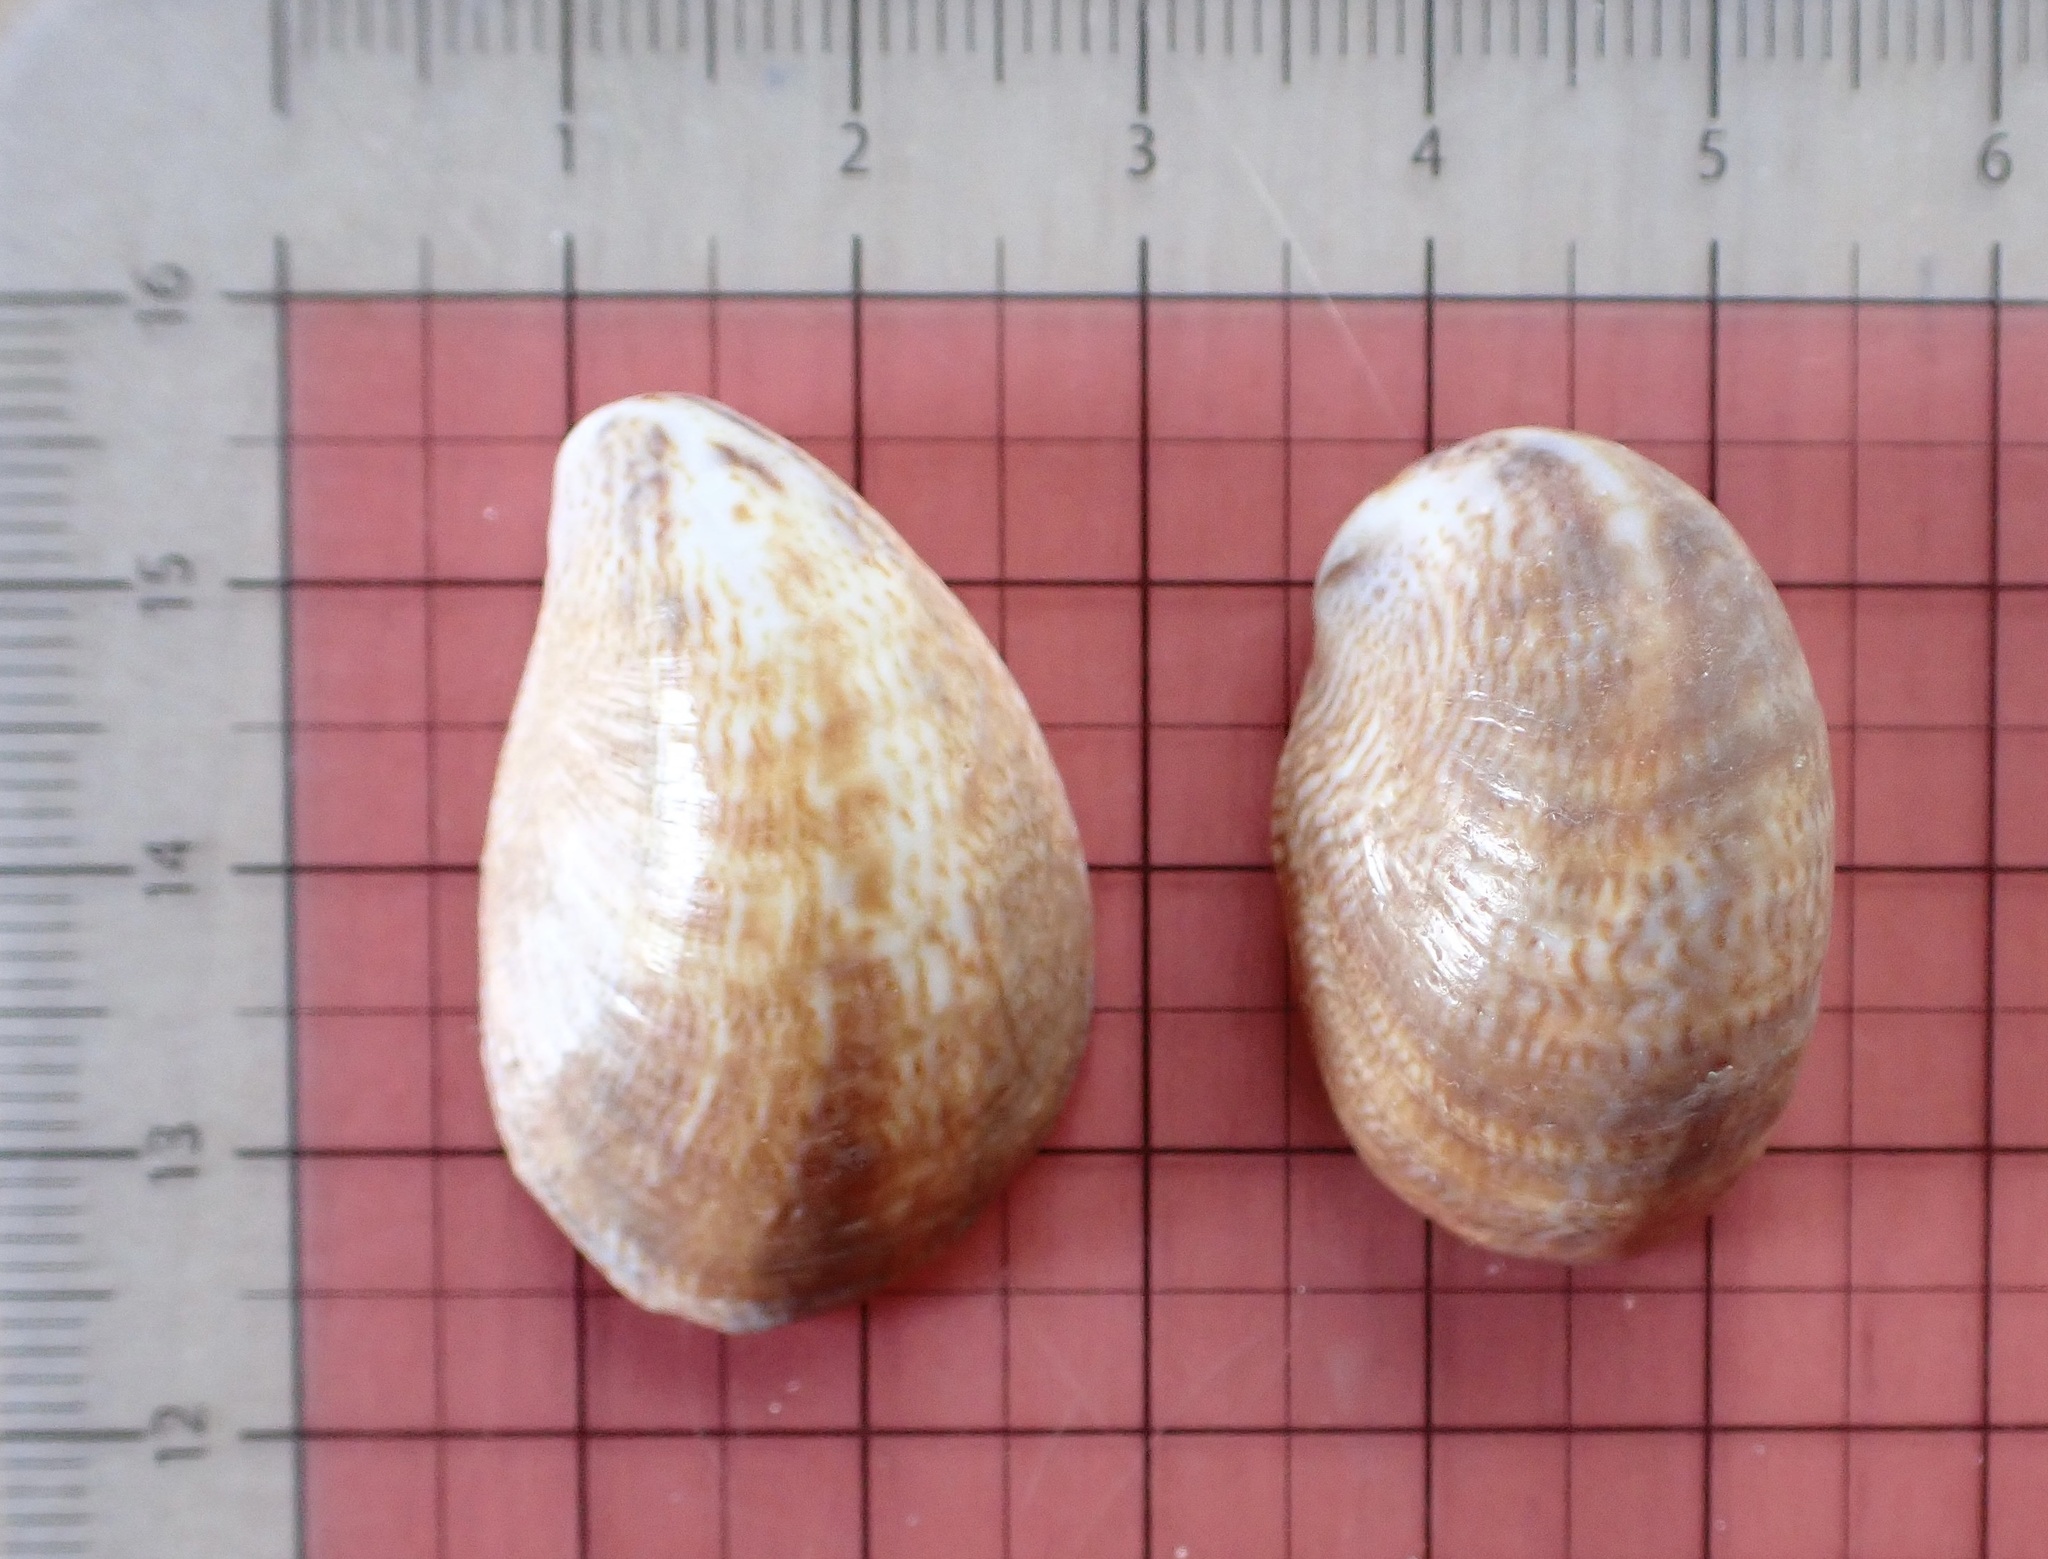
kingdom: Animalia
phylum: Mollusca
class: Gastropoda
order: Littorinimorpha
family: Calyptraeidae
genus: Crepidula
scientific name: Crepidula fornicata
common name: Slipper limpet
